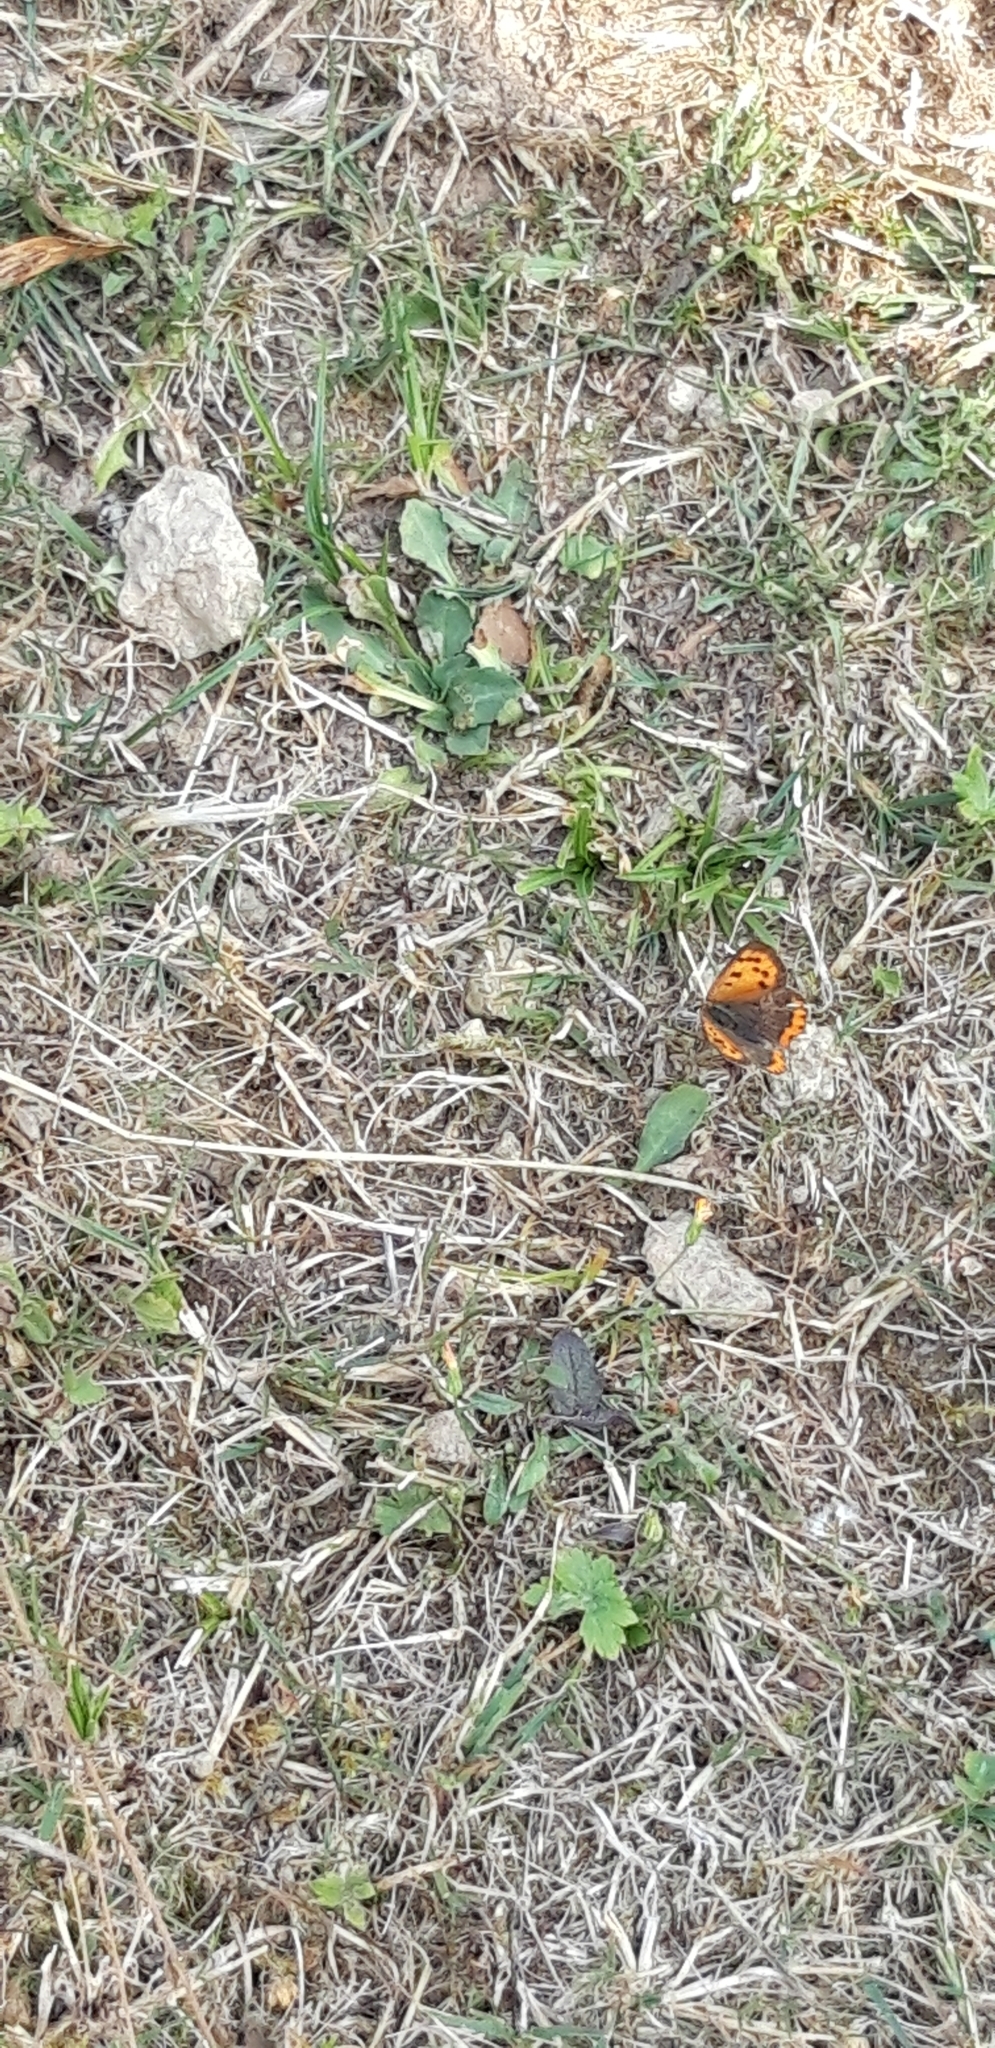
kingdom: Animalia
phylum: Arthropoda
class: Insecta
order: Lepidoptera
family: Lycaenidae
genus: Lycaena
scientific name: Lycaena phlaeas
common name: Small copper
